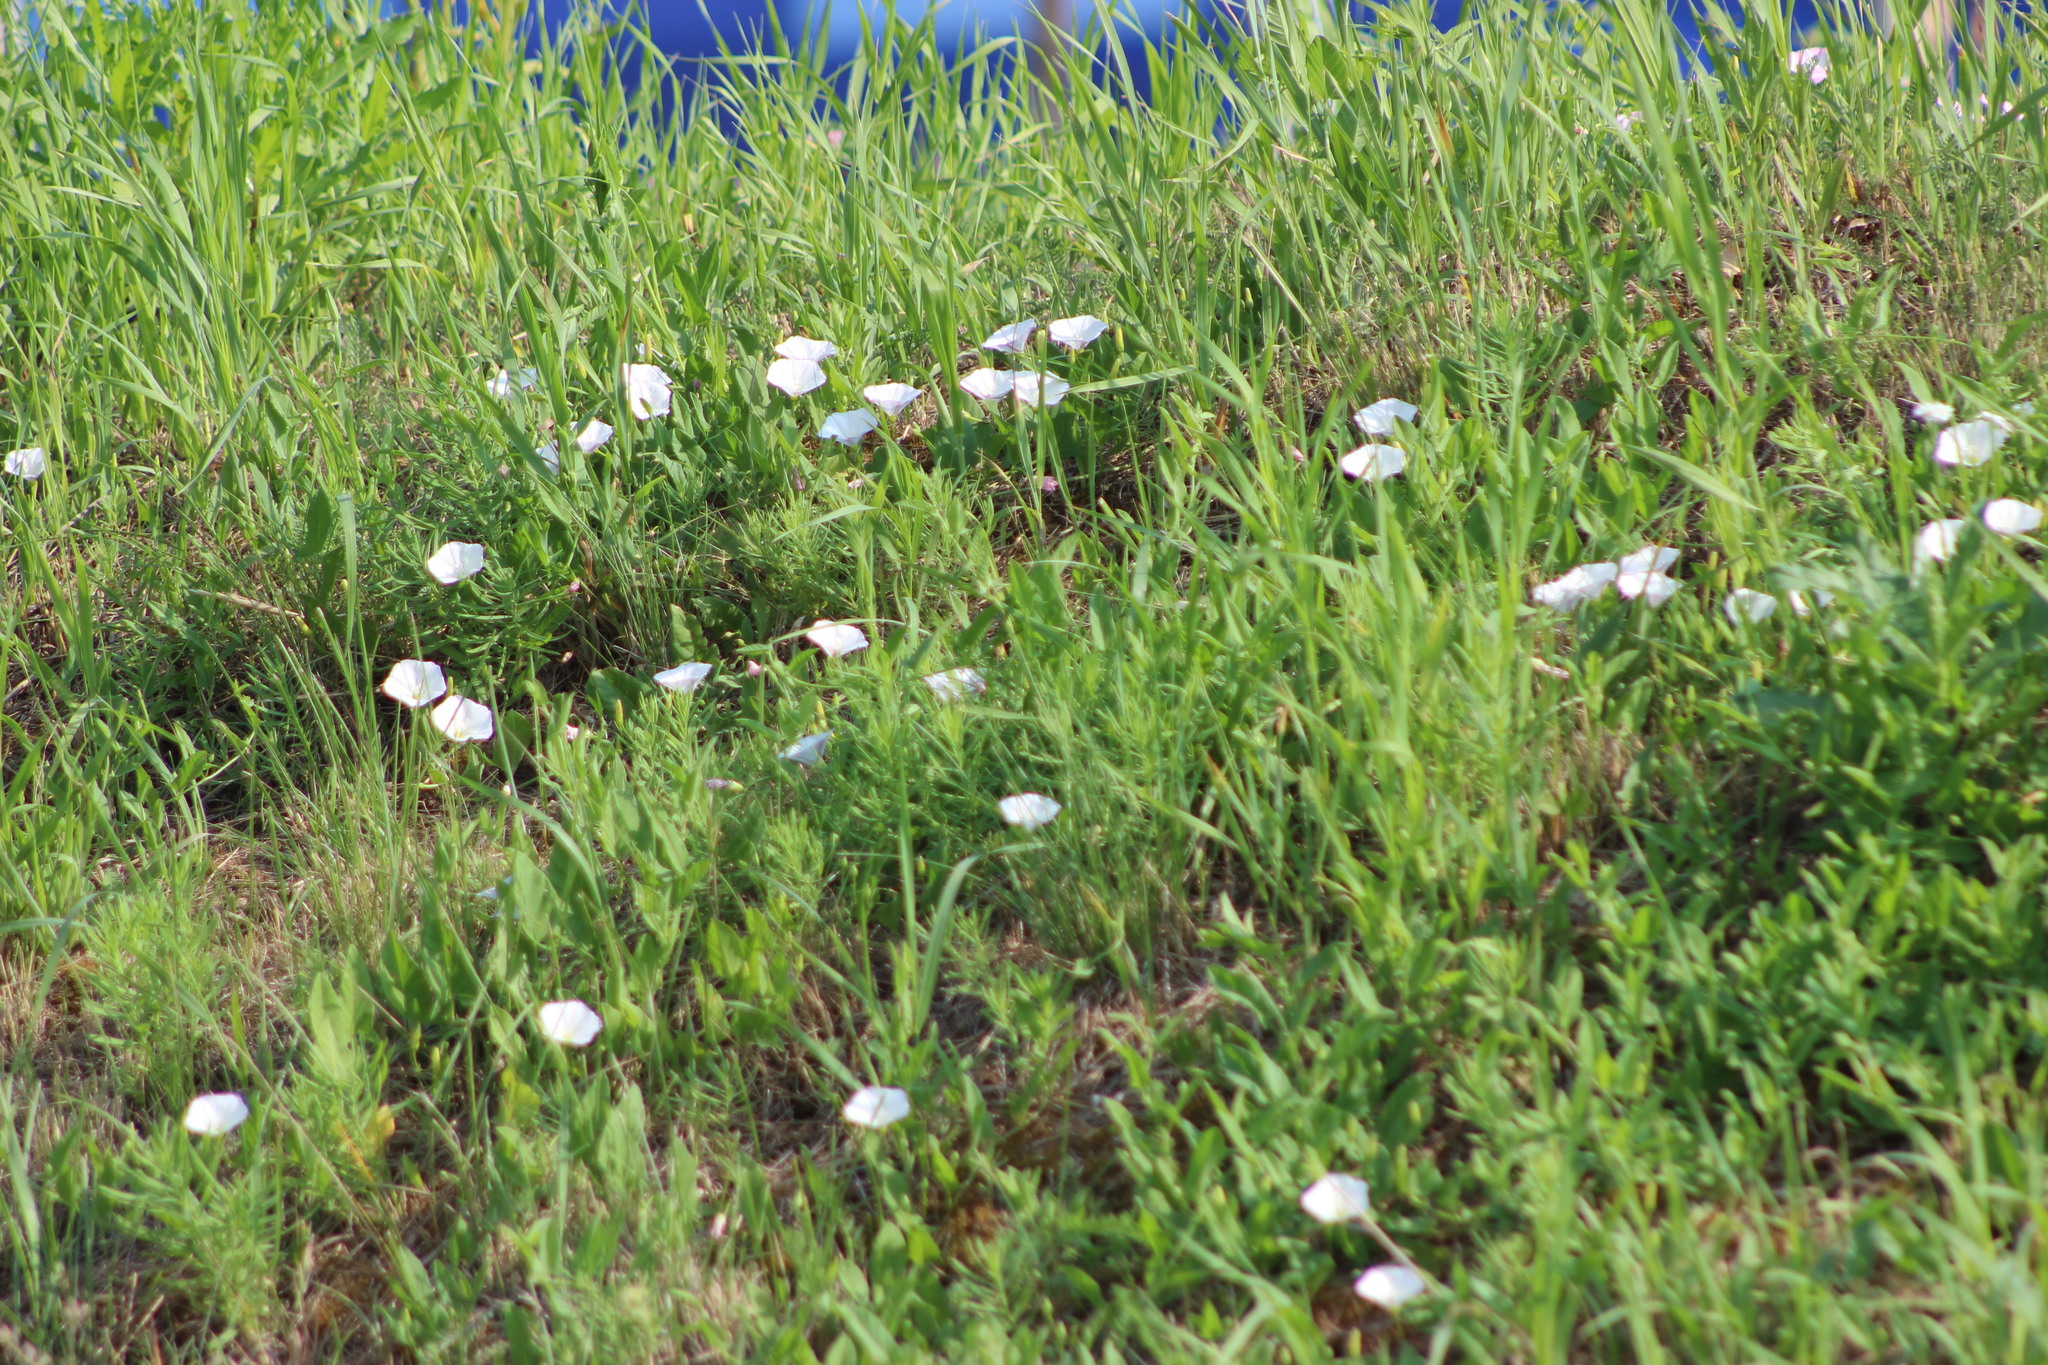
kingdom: Plantae
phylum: Tracheophyta
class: Magnoliopsida
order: Solanales
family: Convolvulaceae
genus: Convolvulus
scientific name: Convolvulus arvensis
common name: Field bindweed
